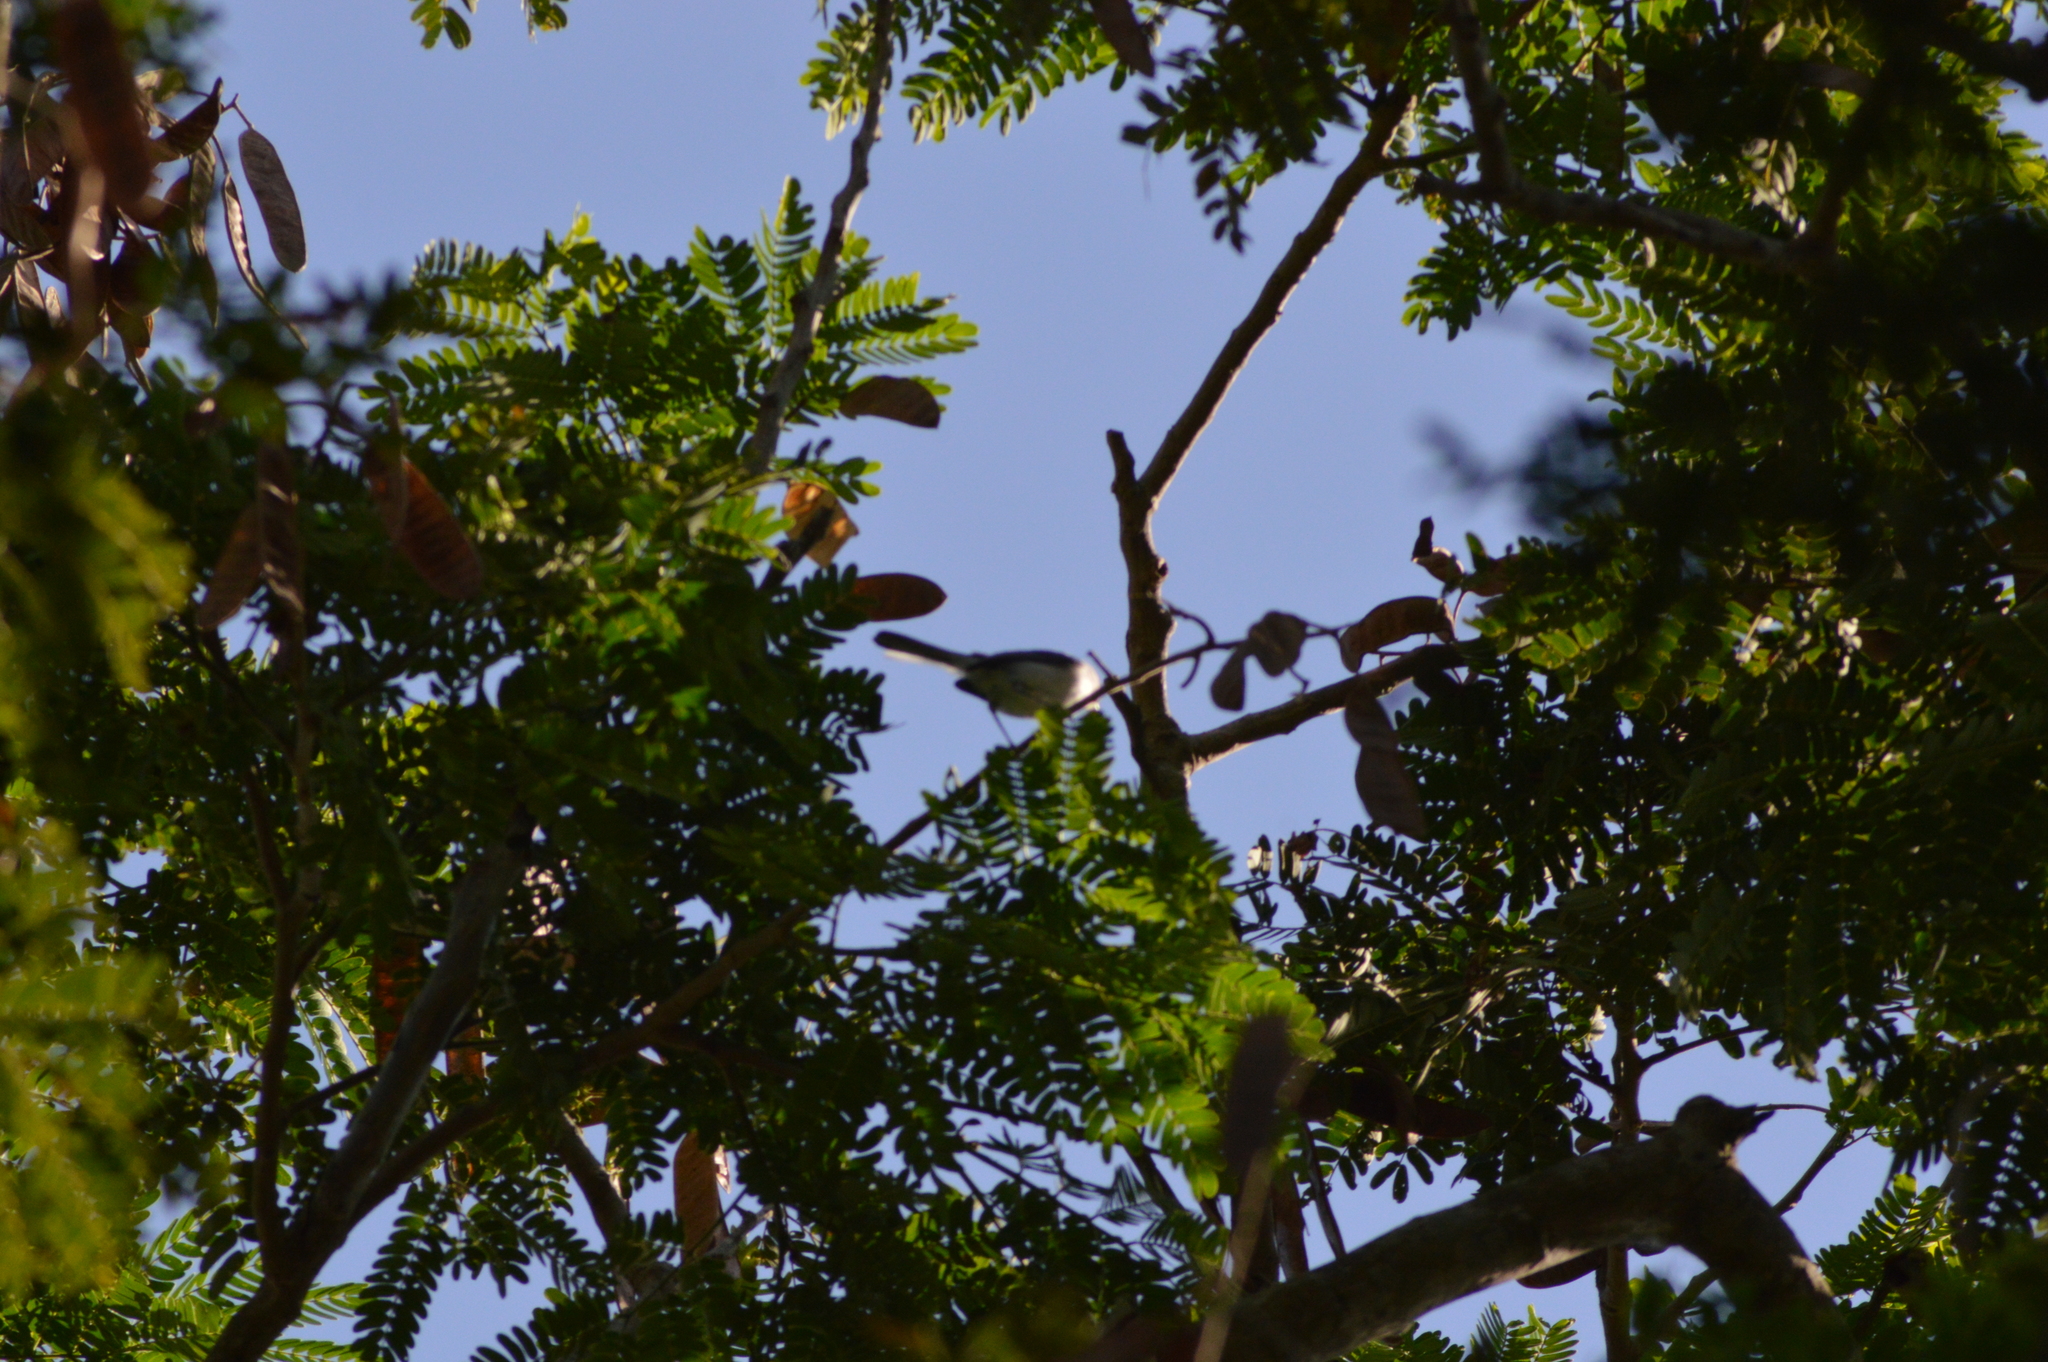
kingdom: Animalia
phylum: Chordata
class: Aves
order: Passeriformes
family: Polioptilidae
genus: Polioptila
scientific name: Polioptila caerulea
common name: Blue-gray gnatcatcher
